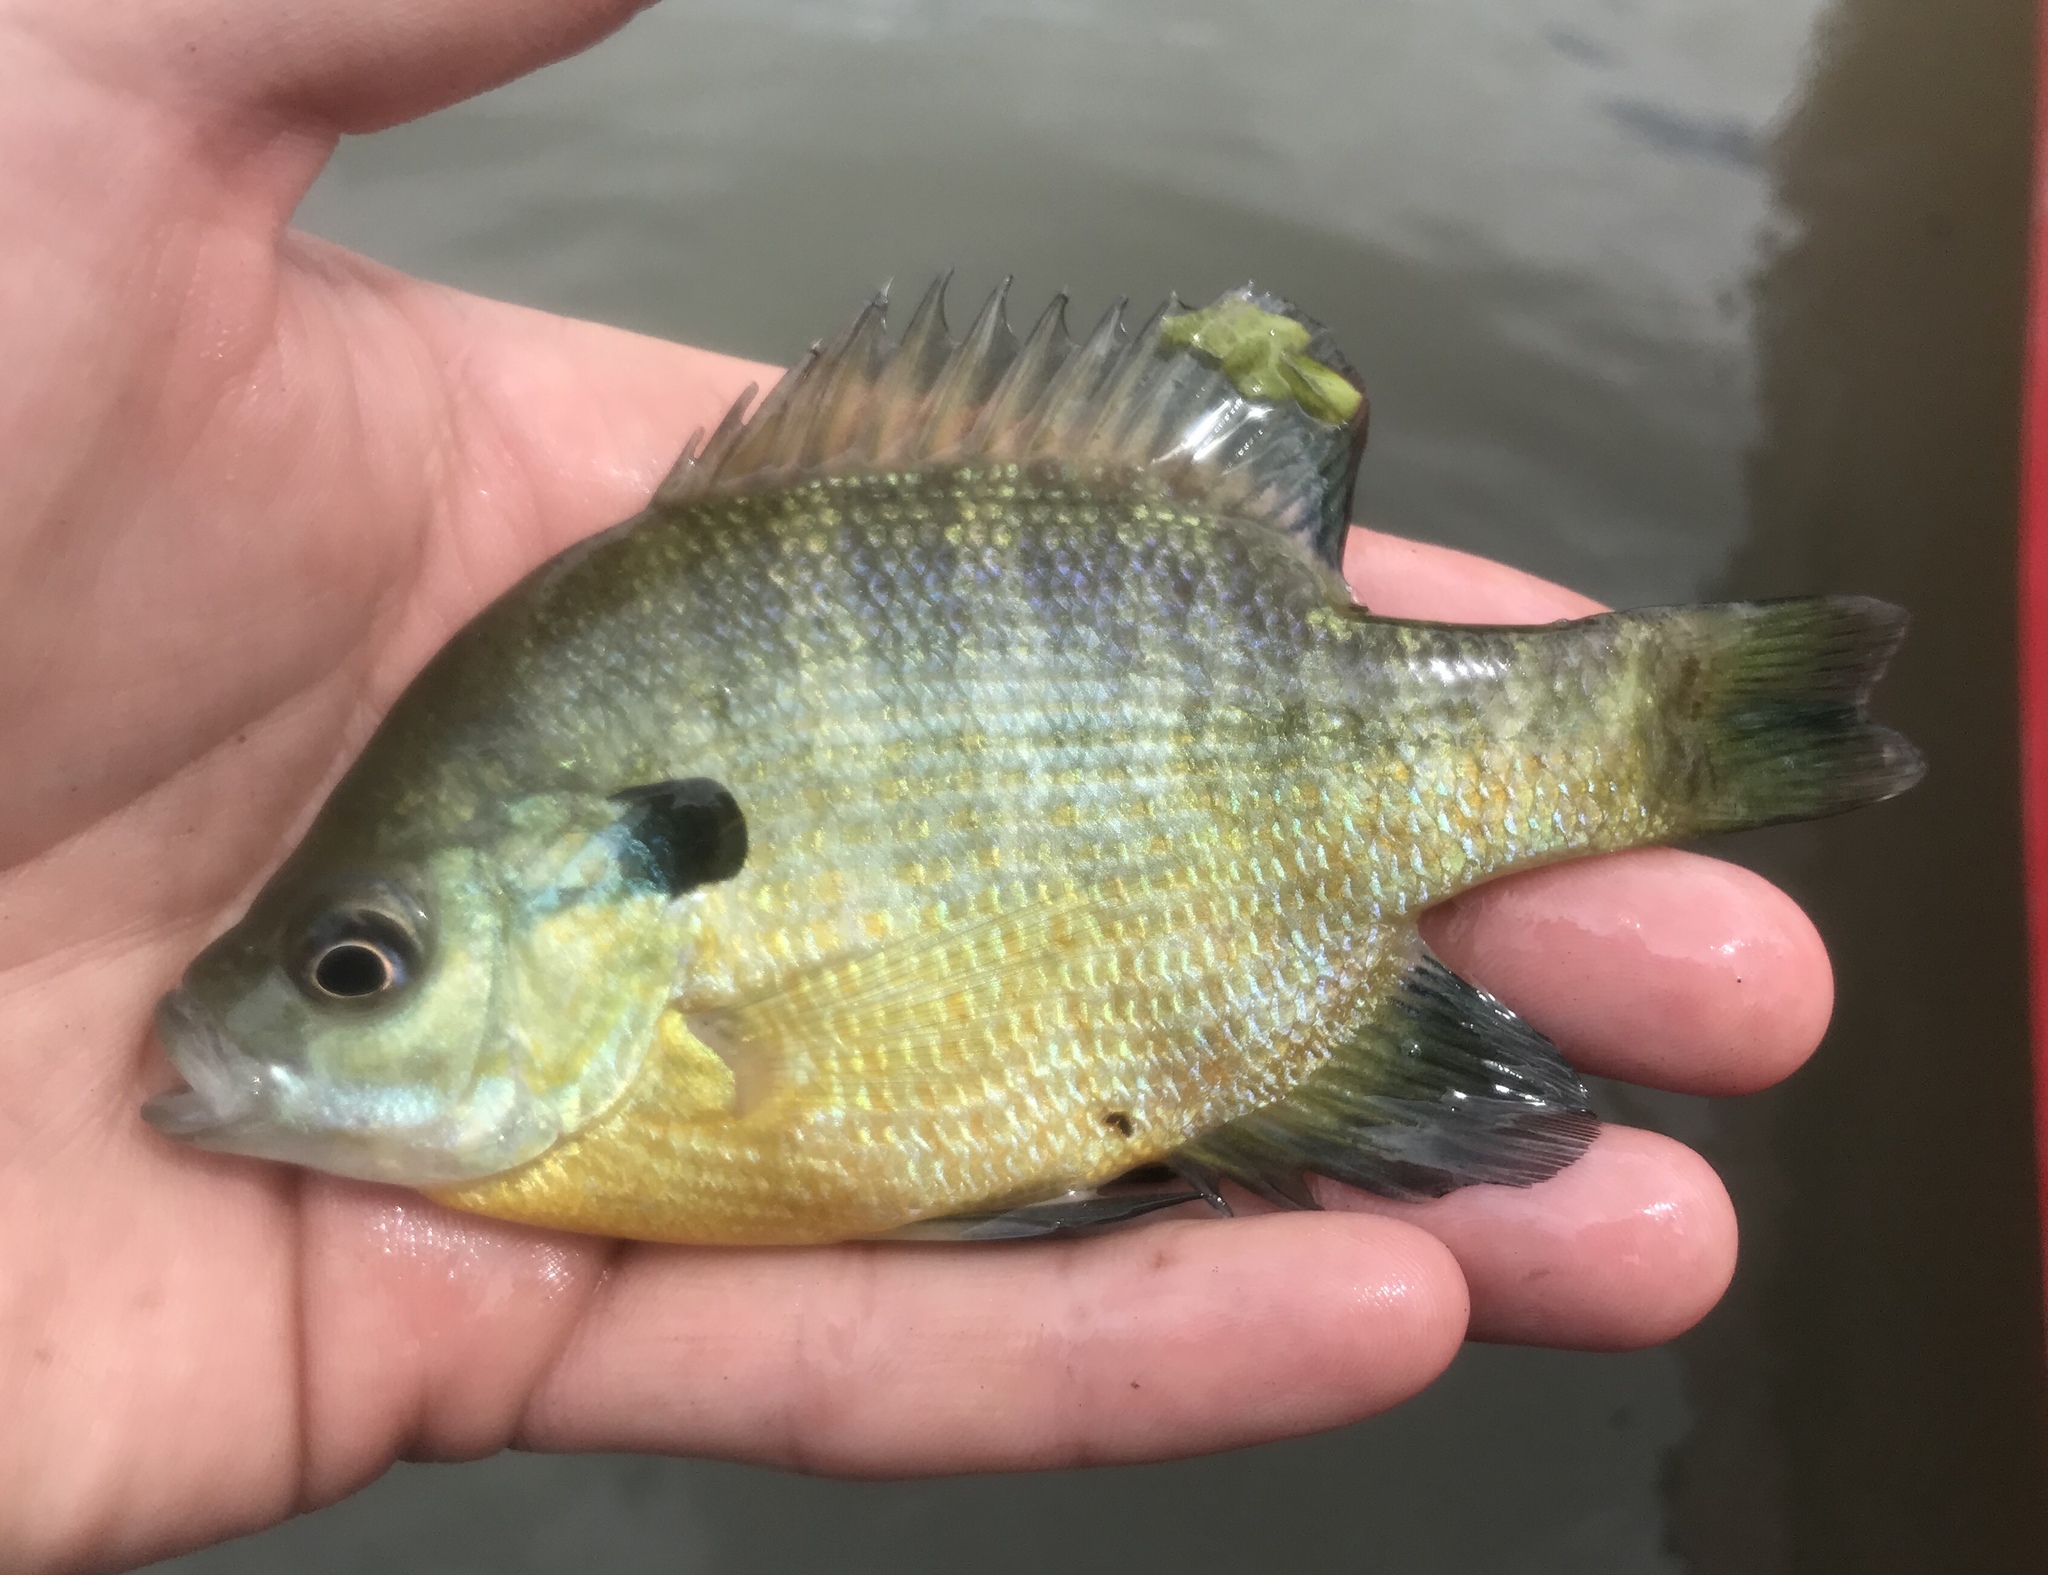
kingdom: Animalia
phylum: Chordata
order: Perciformes
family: Centrarchidae
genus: Lepomis
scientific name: Lepomis macrochirus
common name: Bluegill
